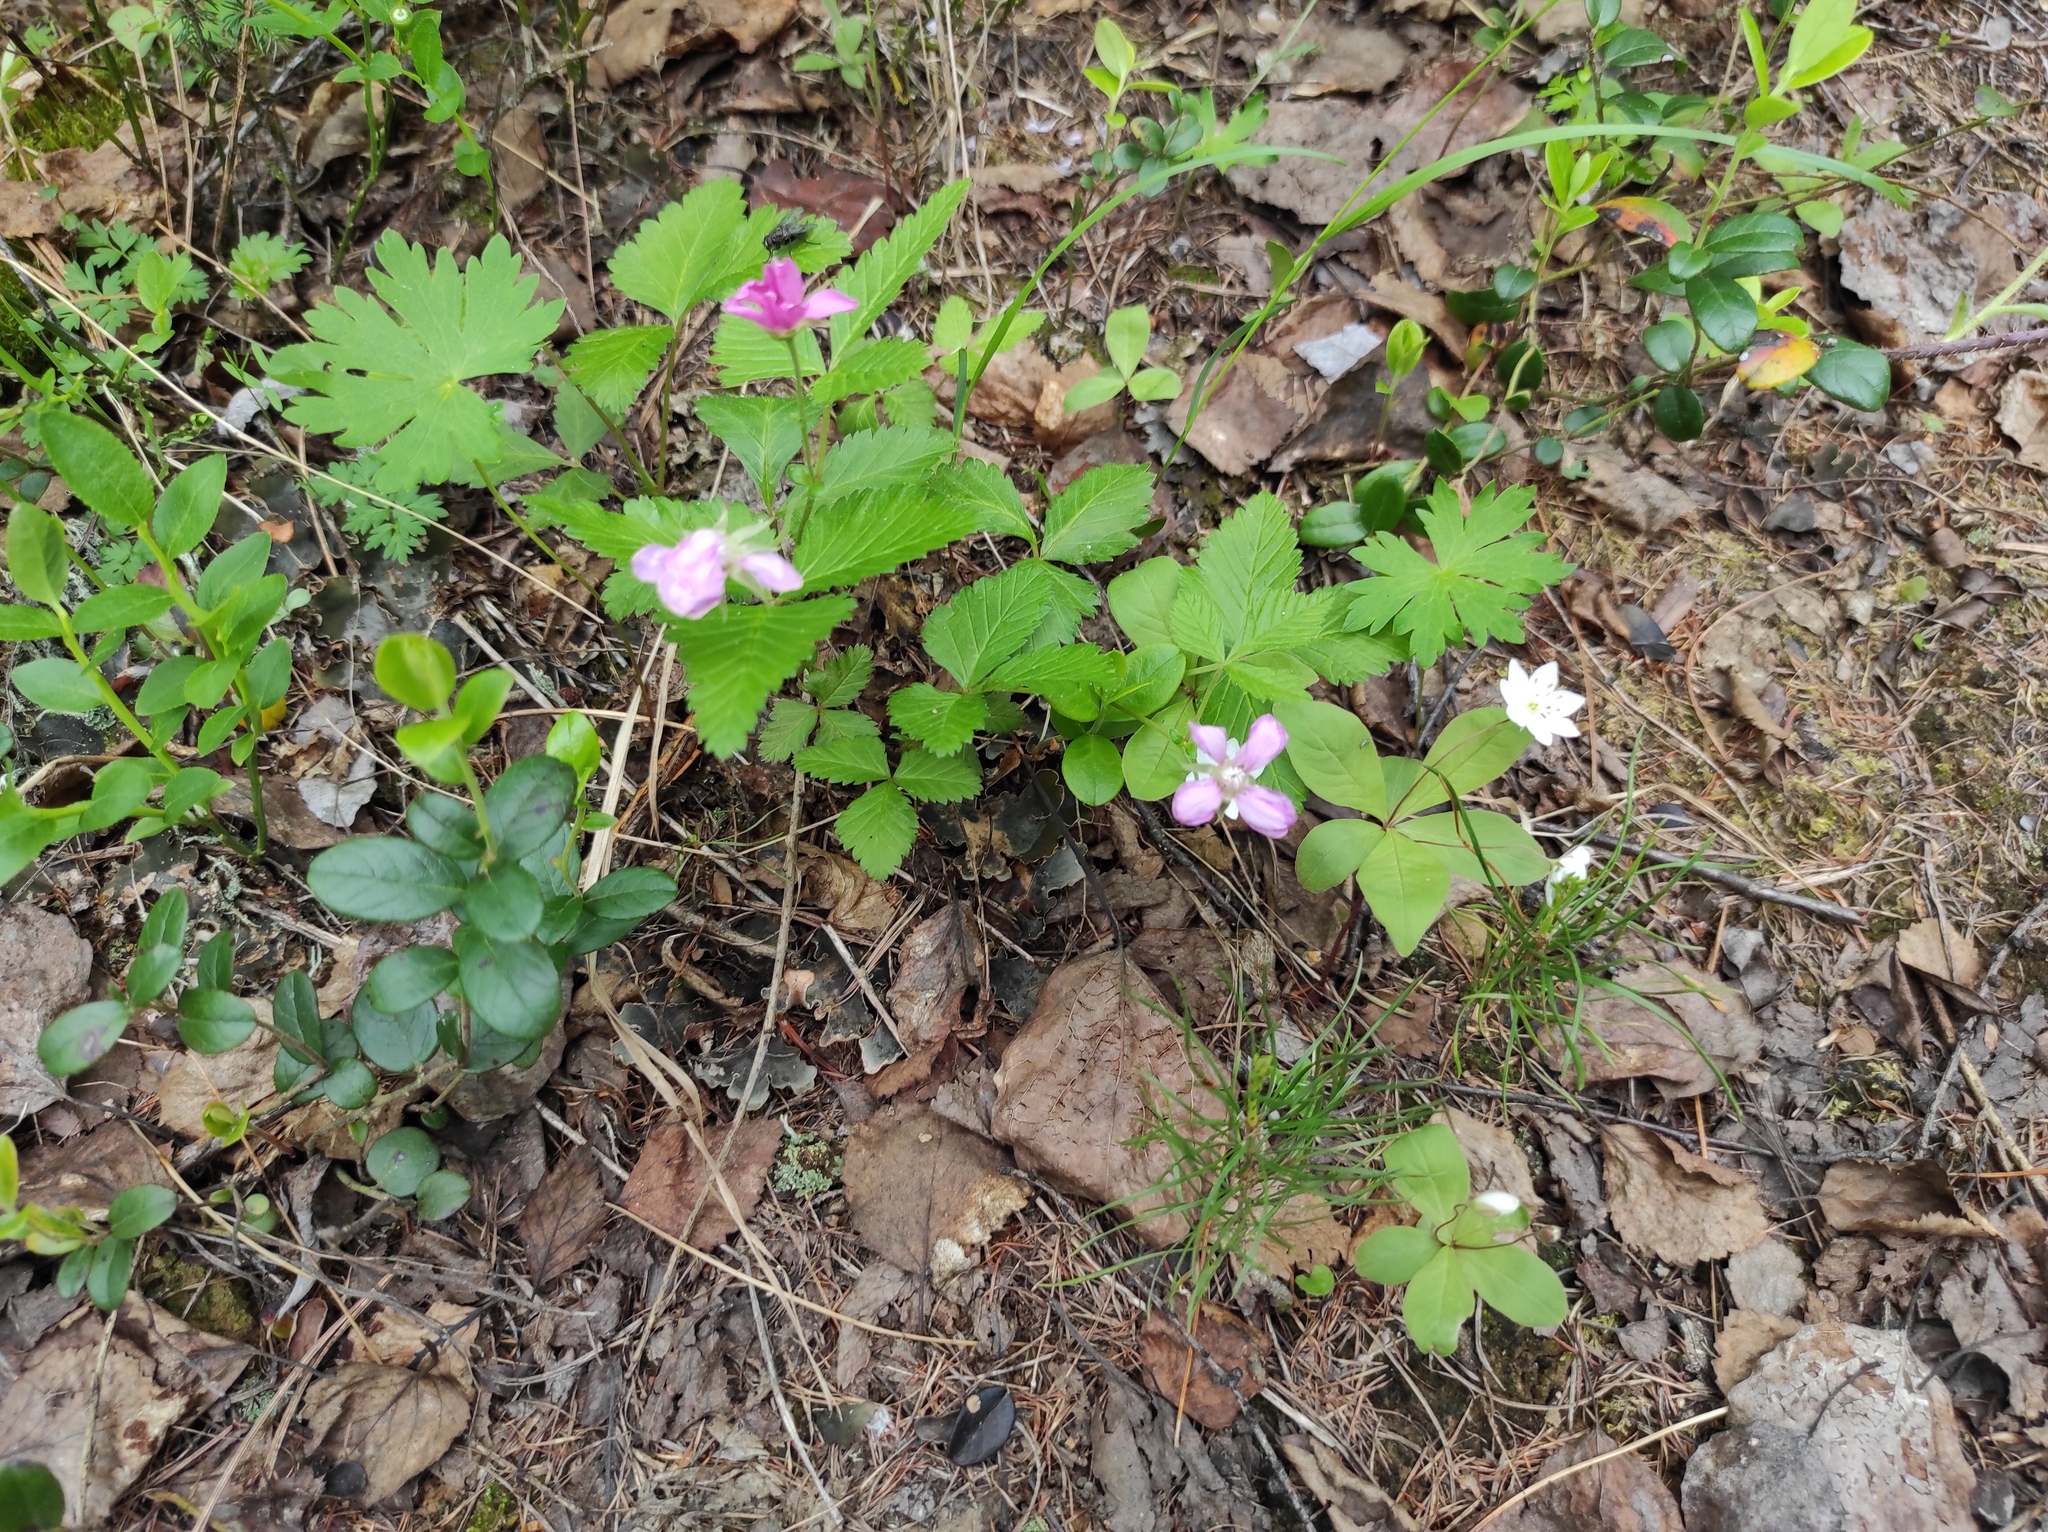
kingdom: Plantae
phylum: Tracheophyta
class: Magnoliopsida
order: Ericales
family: Primulaceae
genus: Lysimachia
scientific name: Lysimachia europaea
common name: Arctic starflower
